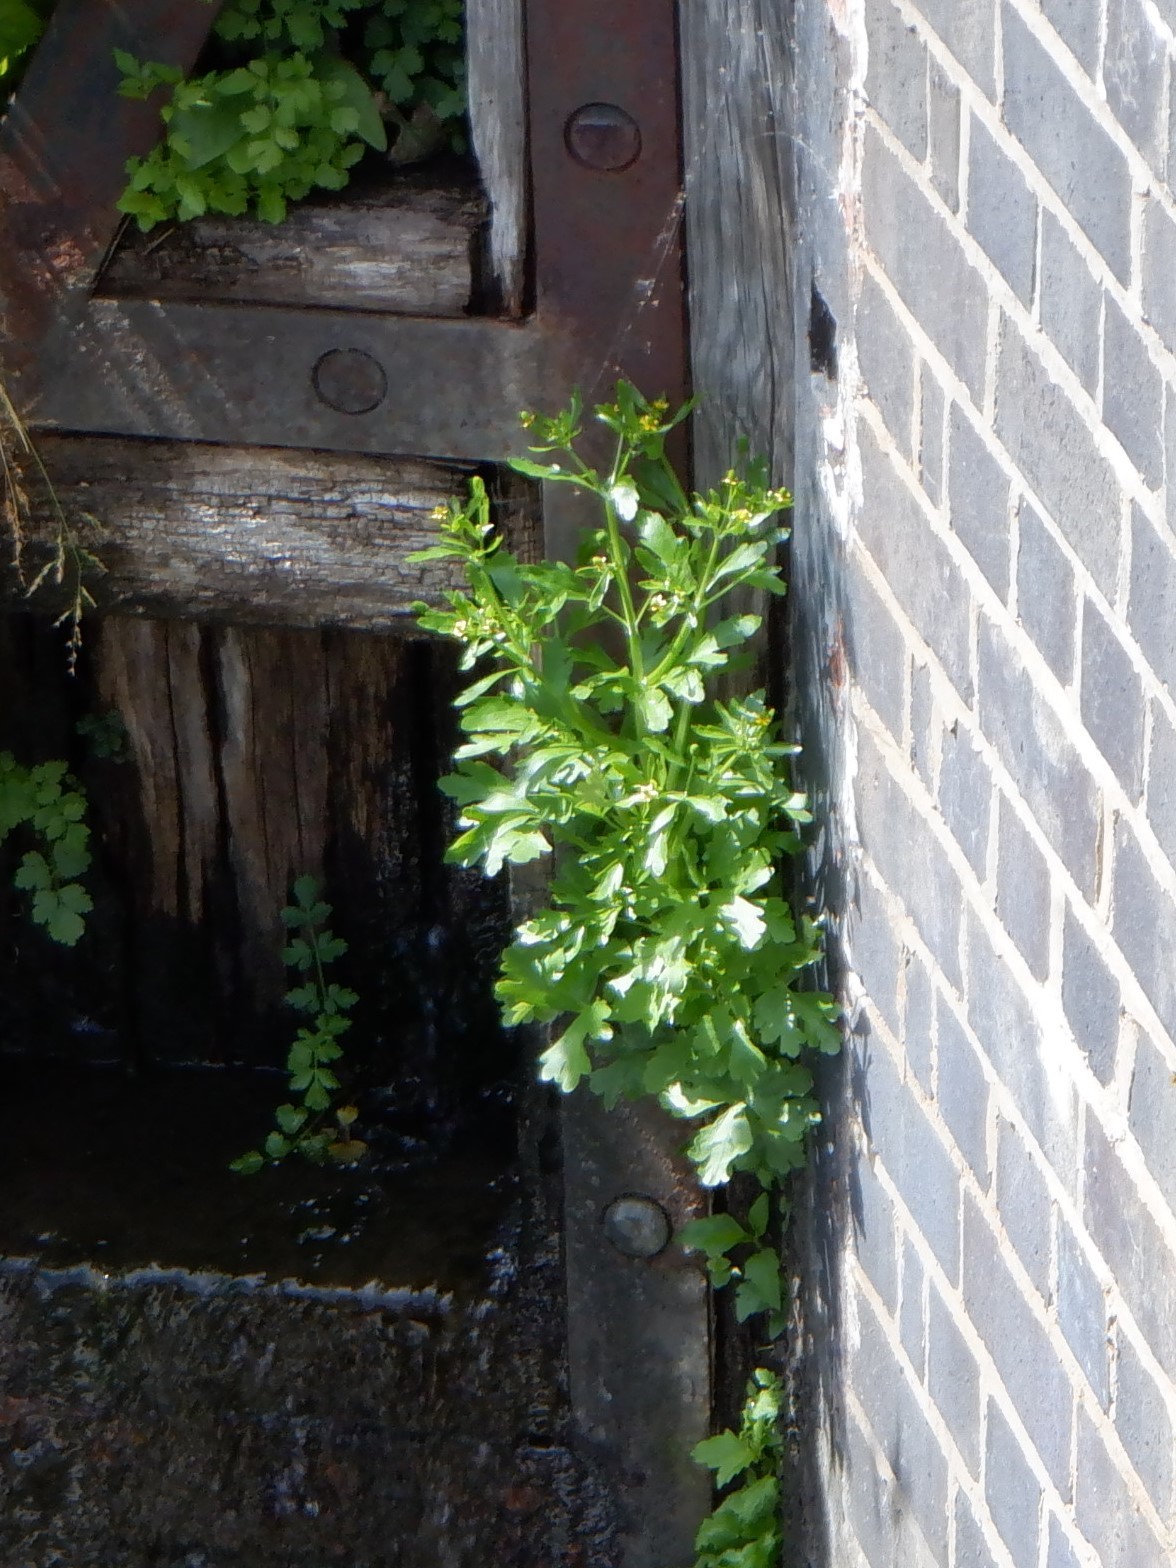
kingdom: Plantae
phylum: Tracheophyta
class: Magnoliopsida
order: Ranunculales
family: Ranunculaceae
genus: Ranunculus
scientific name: Ranunculus sceleratus
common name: Celery-leaved buttercup
